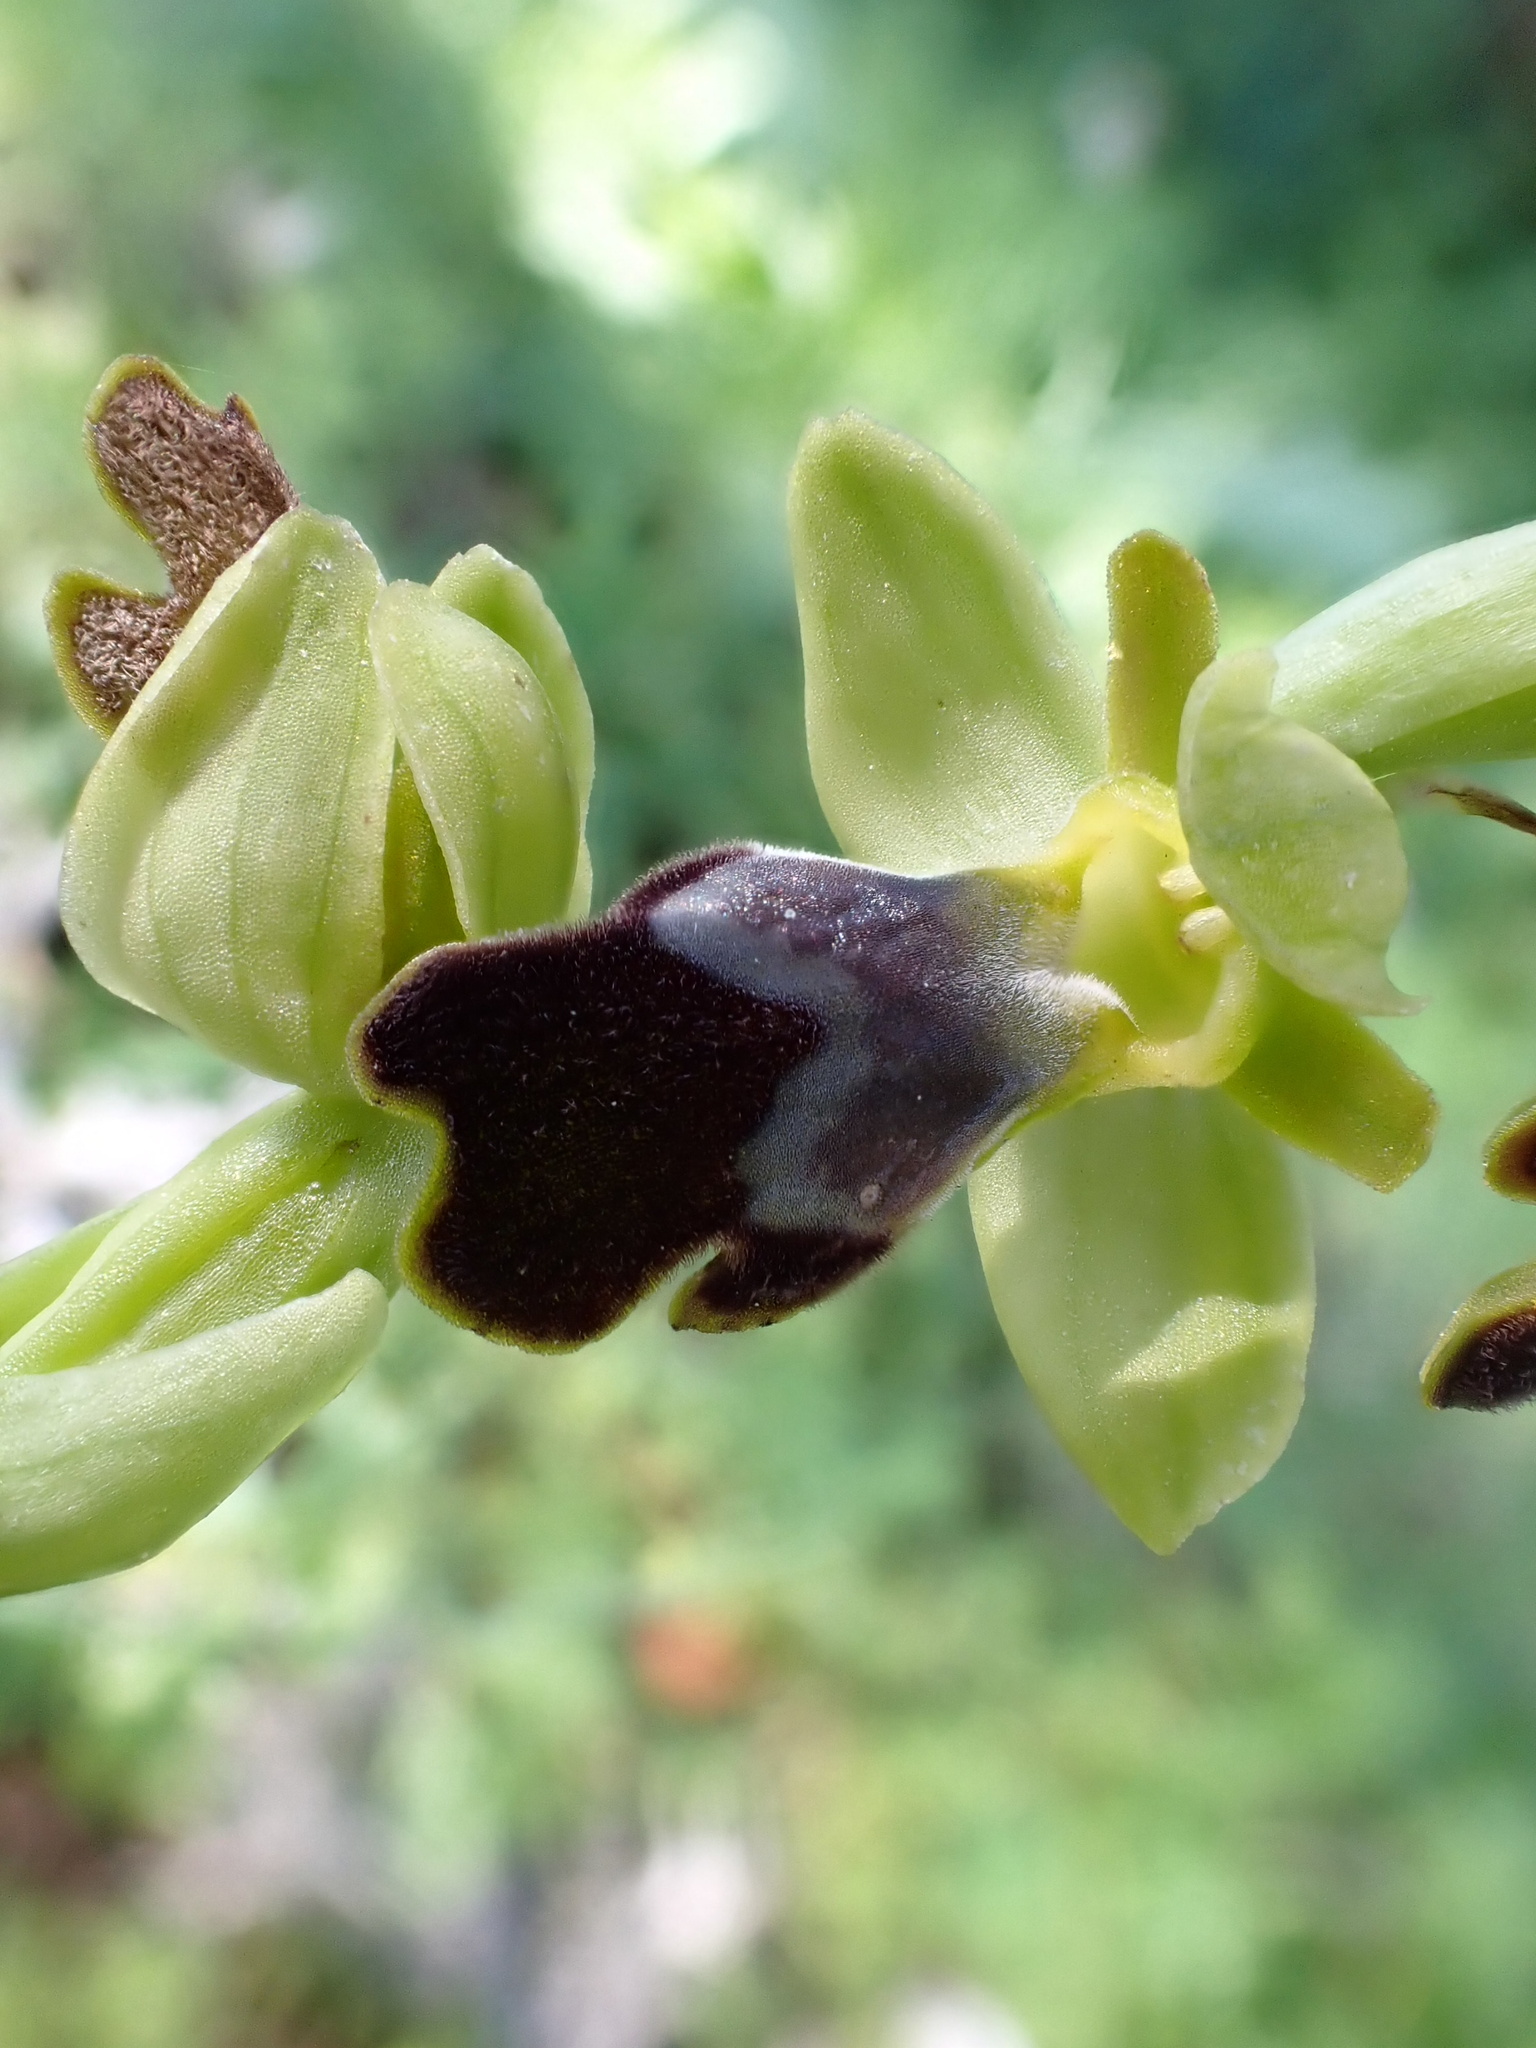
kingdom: Plantae
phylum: Tracheophyta
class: Liliopsida
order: Asparagales
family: Orchidaceae
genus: Ophrys
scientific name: Ophrys fusca
